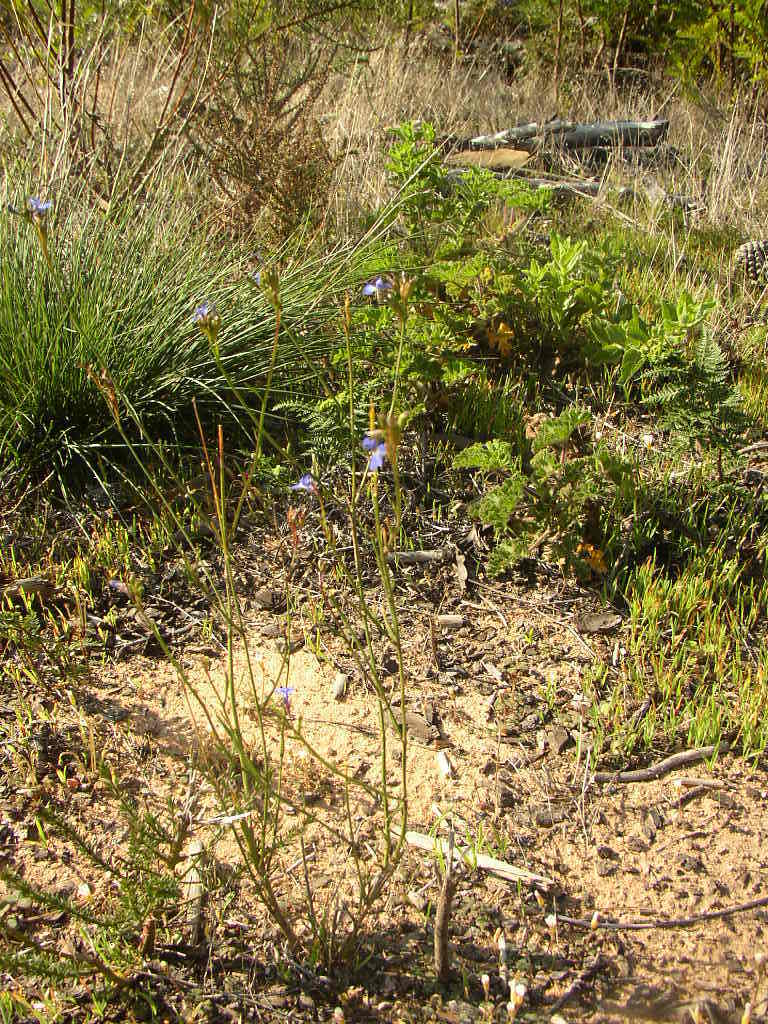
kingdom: Plantae
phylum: Tracheophyta
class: Magnoliopsida
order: Asterales
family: Campanulaceae
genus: Lobelia
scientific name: Lobelia comosa
